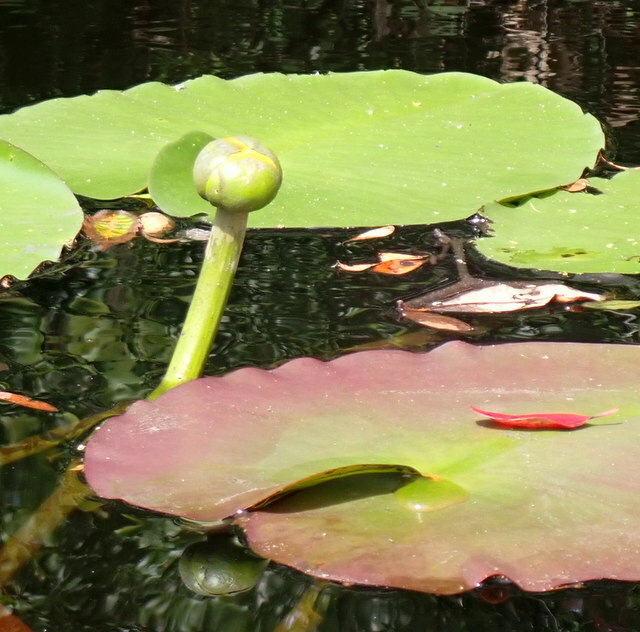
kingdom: Plantae
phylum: Tracheophyta
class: Magnoliopsida
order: Nymphaeales
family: Nymphaeaceae
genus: Nuphar
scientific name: Nuphar advena
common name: Spatter-dock
